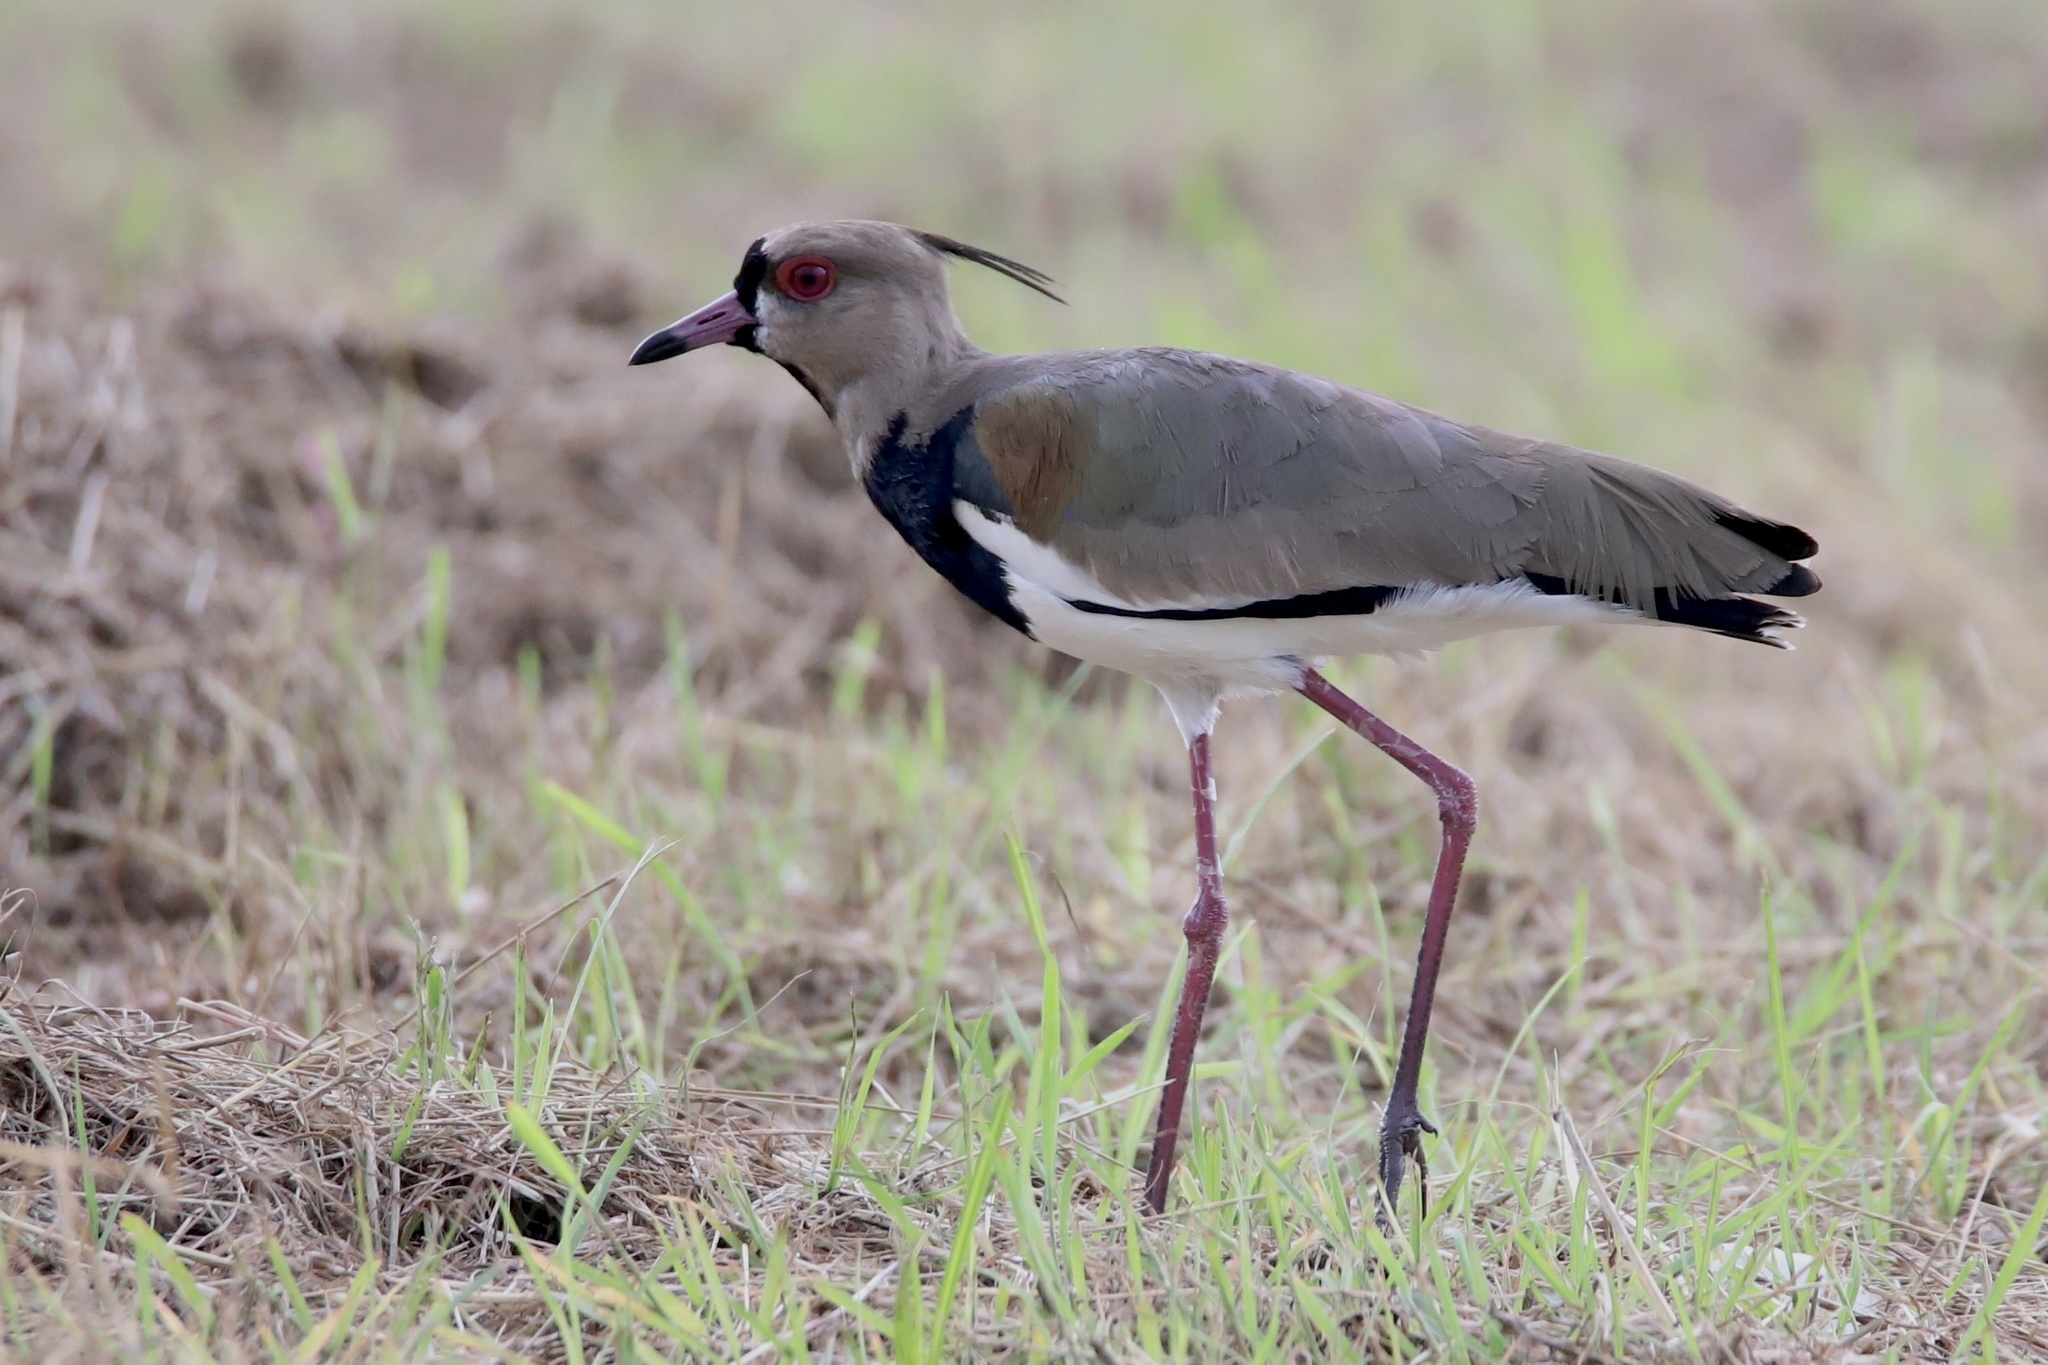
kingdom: Animalia
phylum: Chordata
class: Aves
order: Charadriiformes
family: Charadriidae
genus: Vanellus
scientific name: Vanellus chilensis
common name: Southern lapwing
